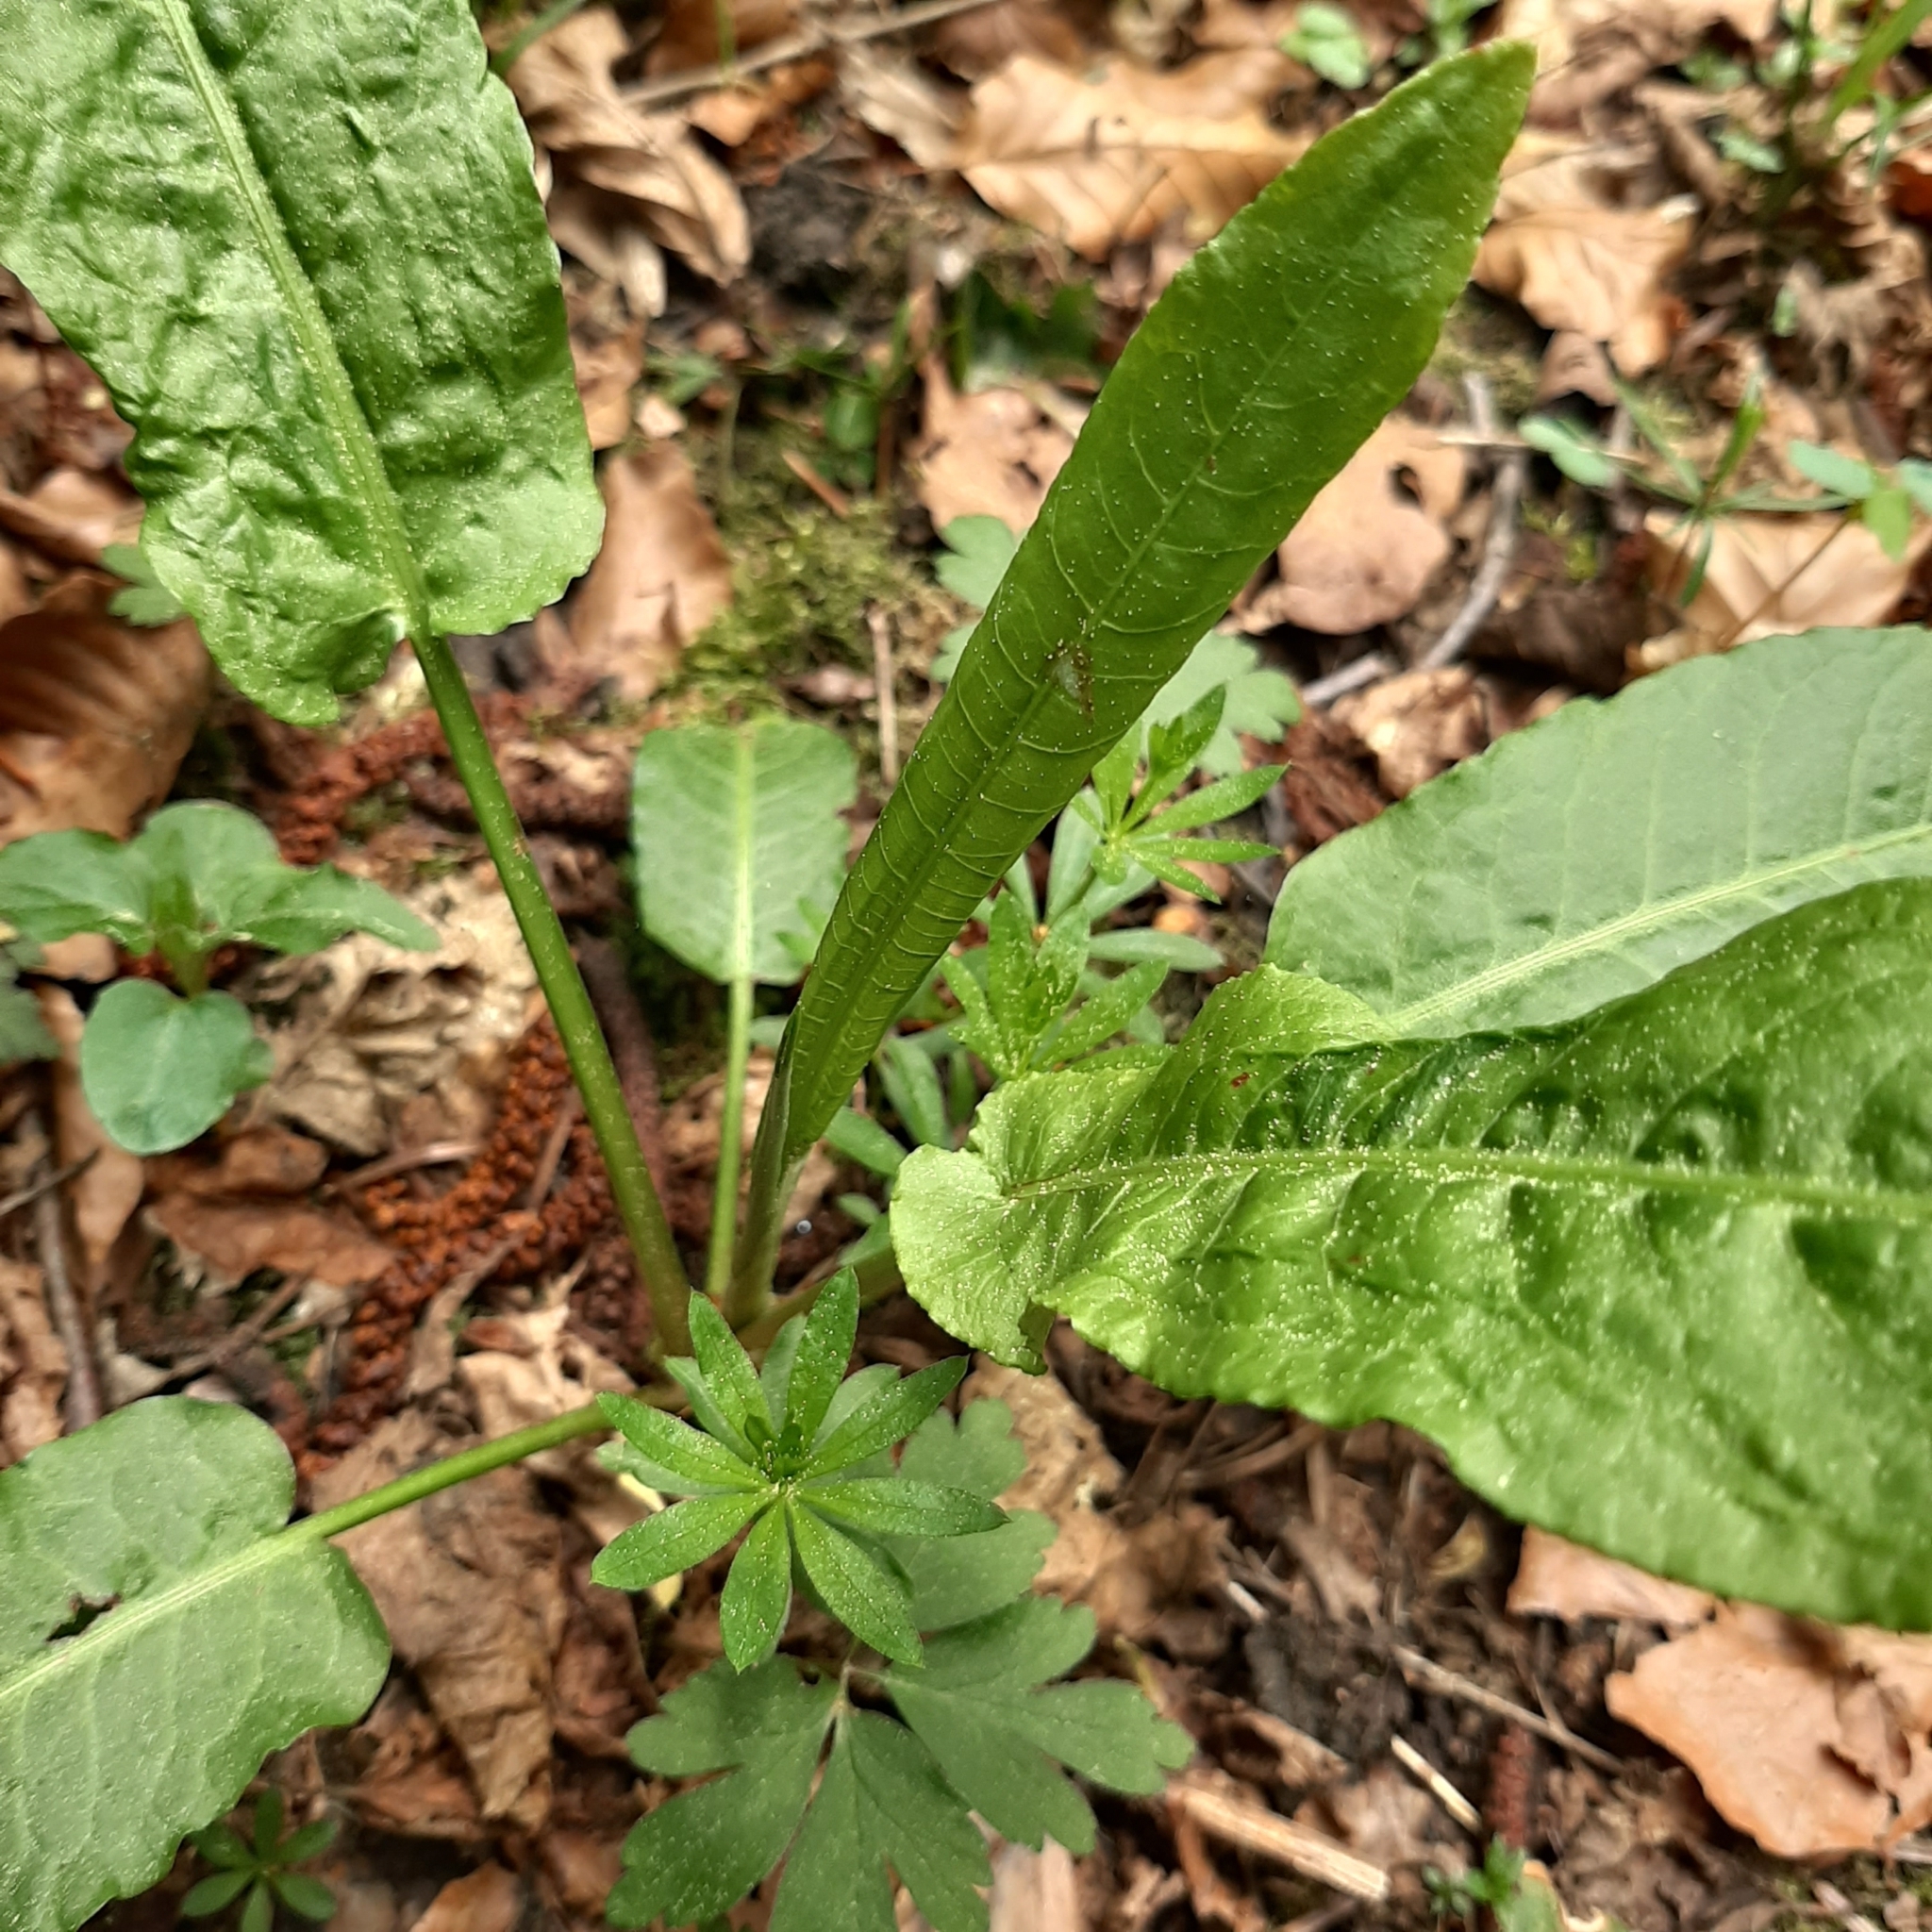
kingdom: Plantae
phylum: Tracheophyta
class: Magnoliopsida
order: Caryophyllales
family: Polygonaceae
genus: Rumex
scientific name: Rumex obtusifolius
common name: Bitter dock
